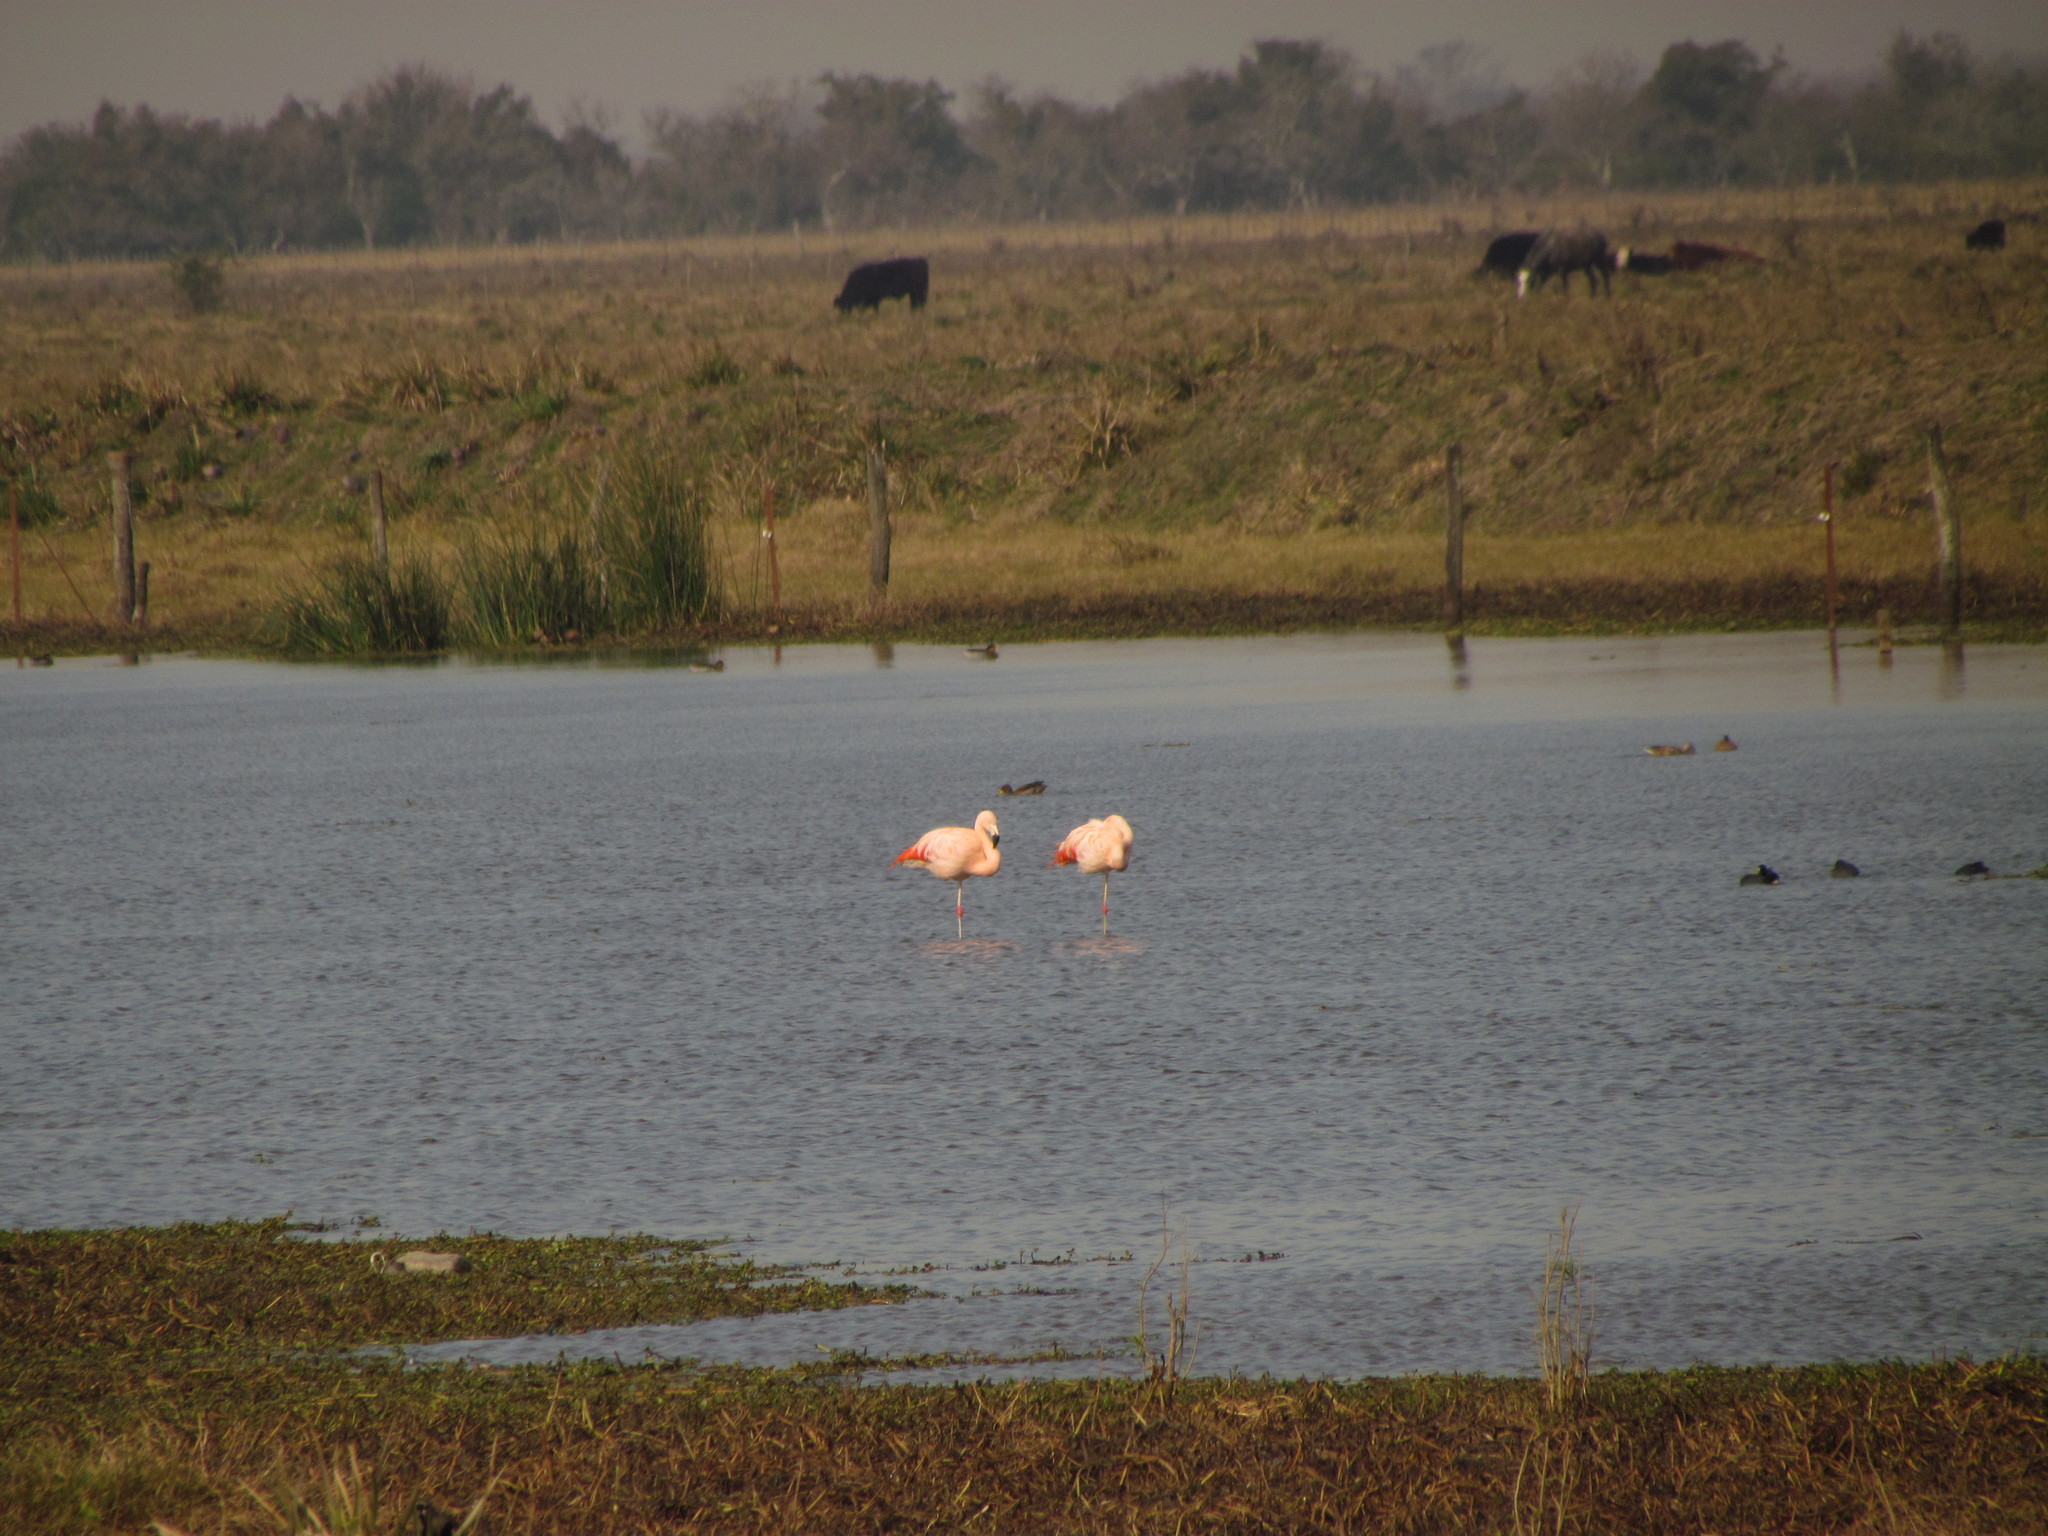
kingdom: Animalia
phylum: Chordata
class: Aves
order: Phoenicopteriformes
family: Phoenicopteridae
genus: Phoenicopterus
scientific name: Phoenicopterus chilensis
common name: Chilean flamingo
